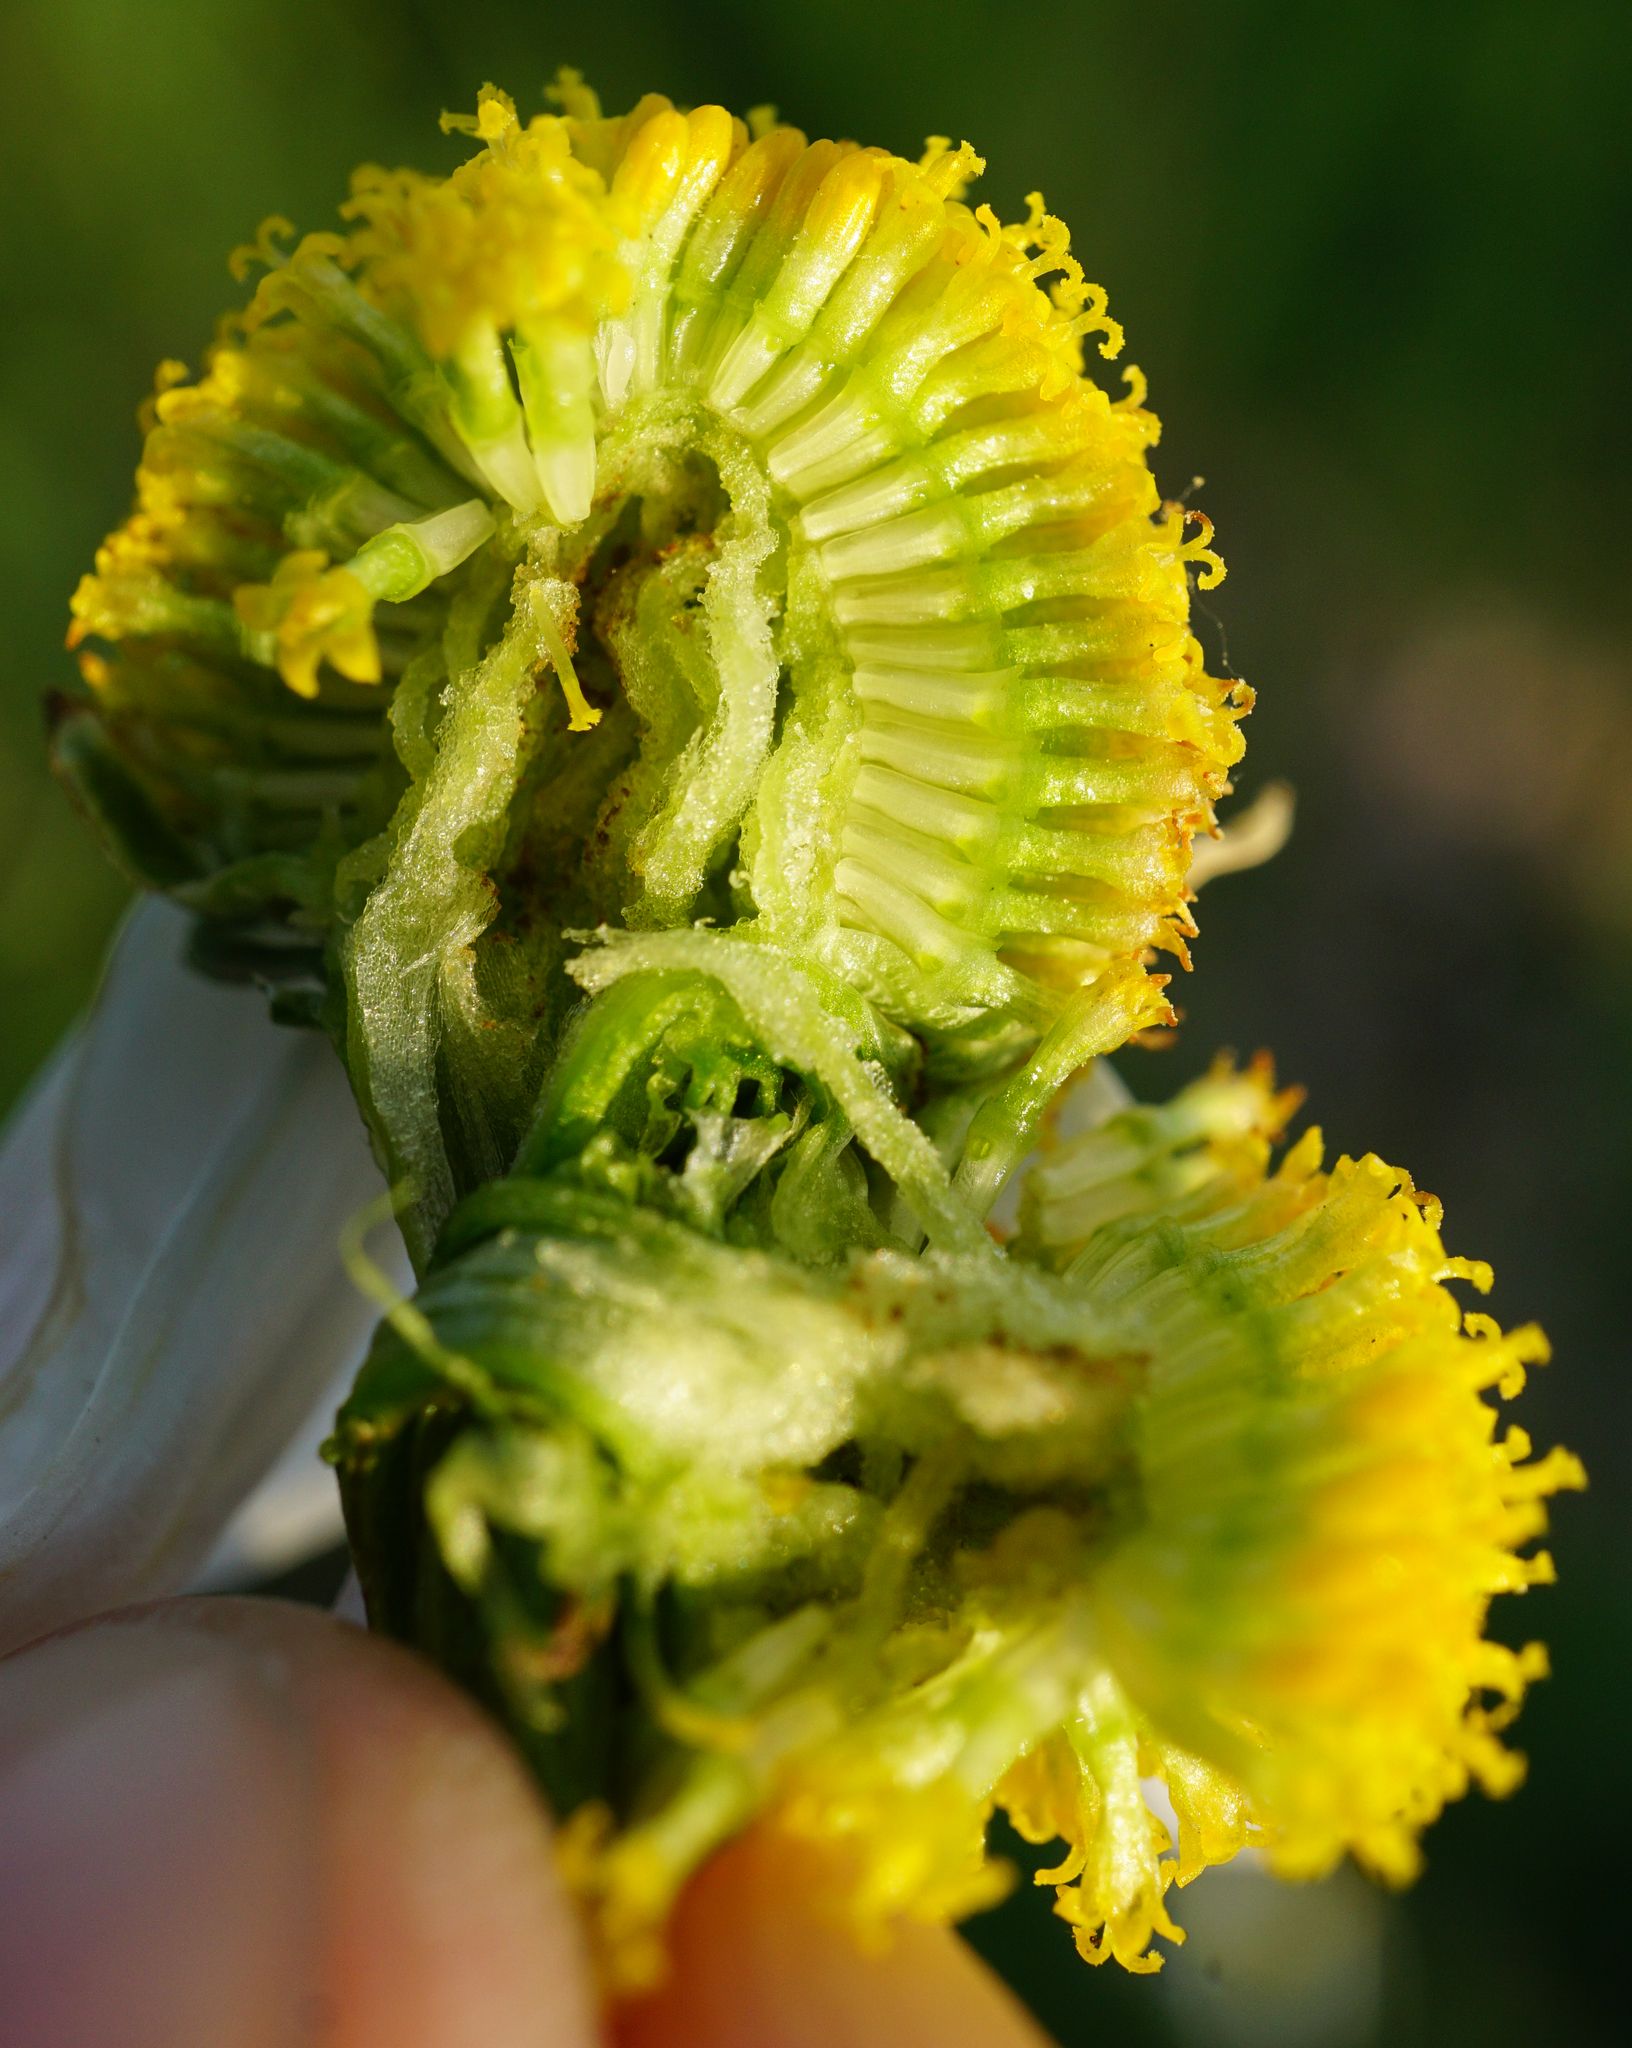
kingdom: Plantae
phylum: Tracheophyta
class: Magnoliopsida
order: Asterales
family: Asteraceae
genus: Matricaria
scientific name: Matricaria chamomilla
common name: Scented mayweed
